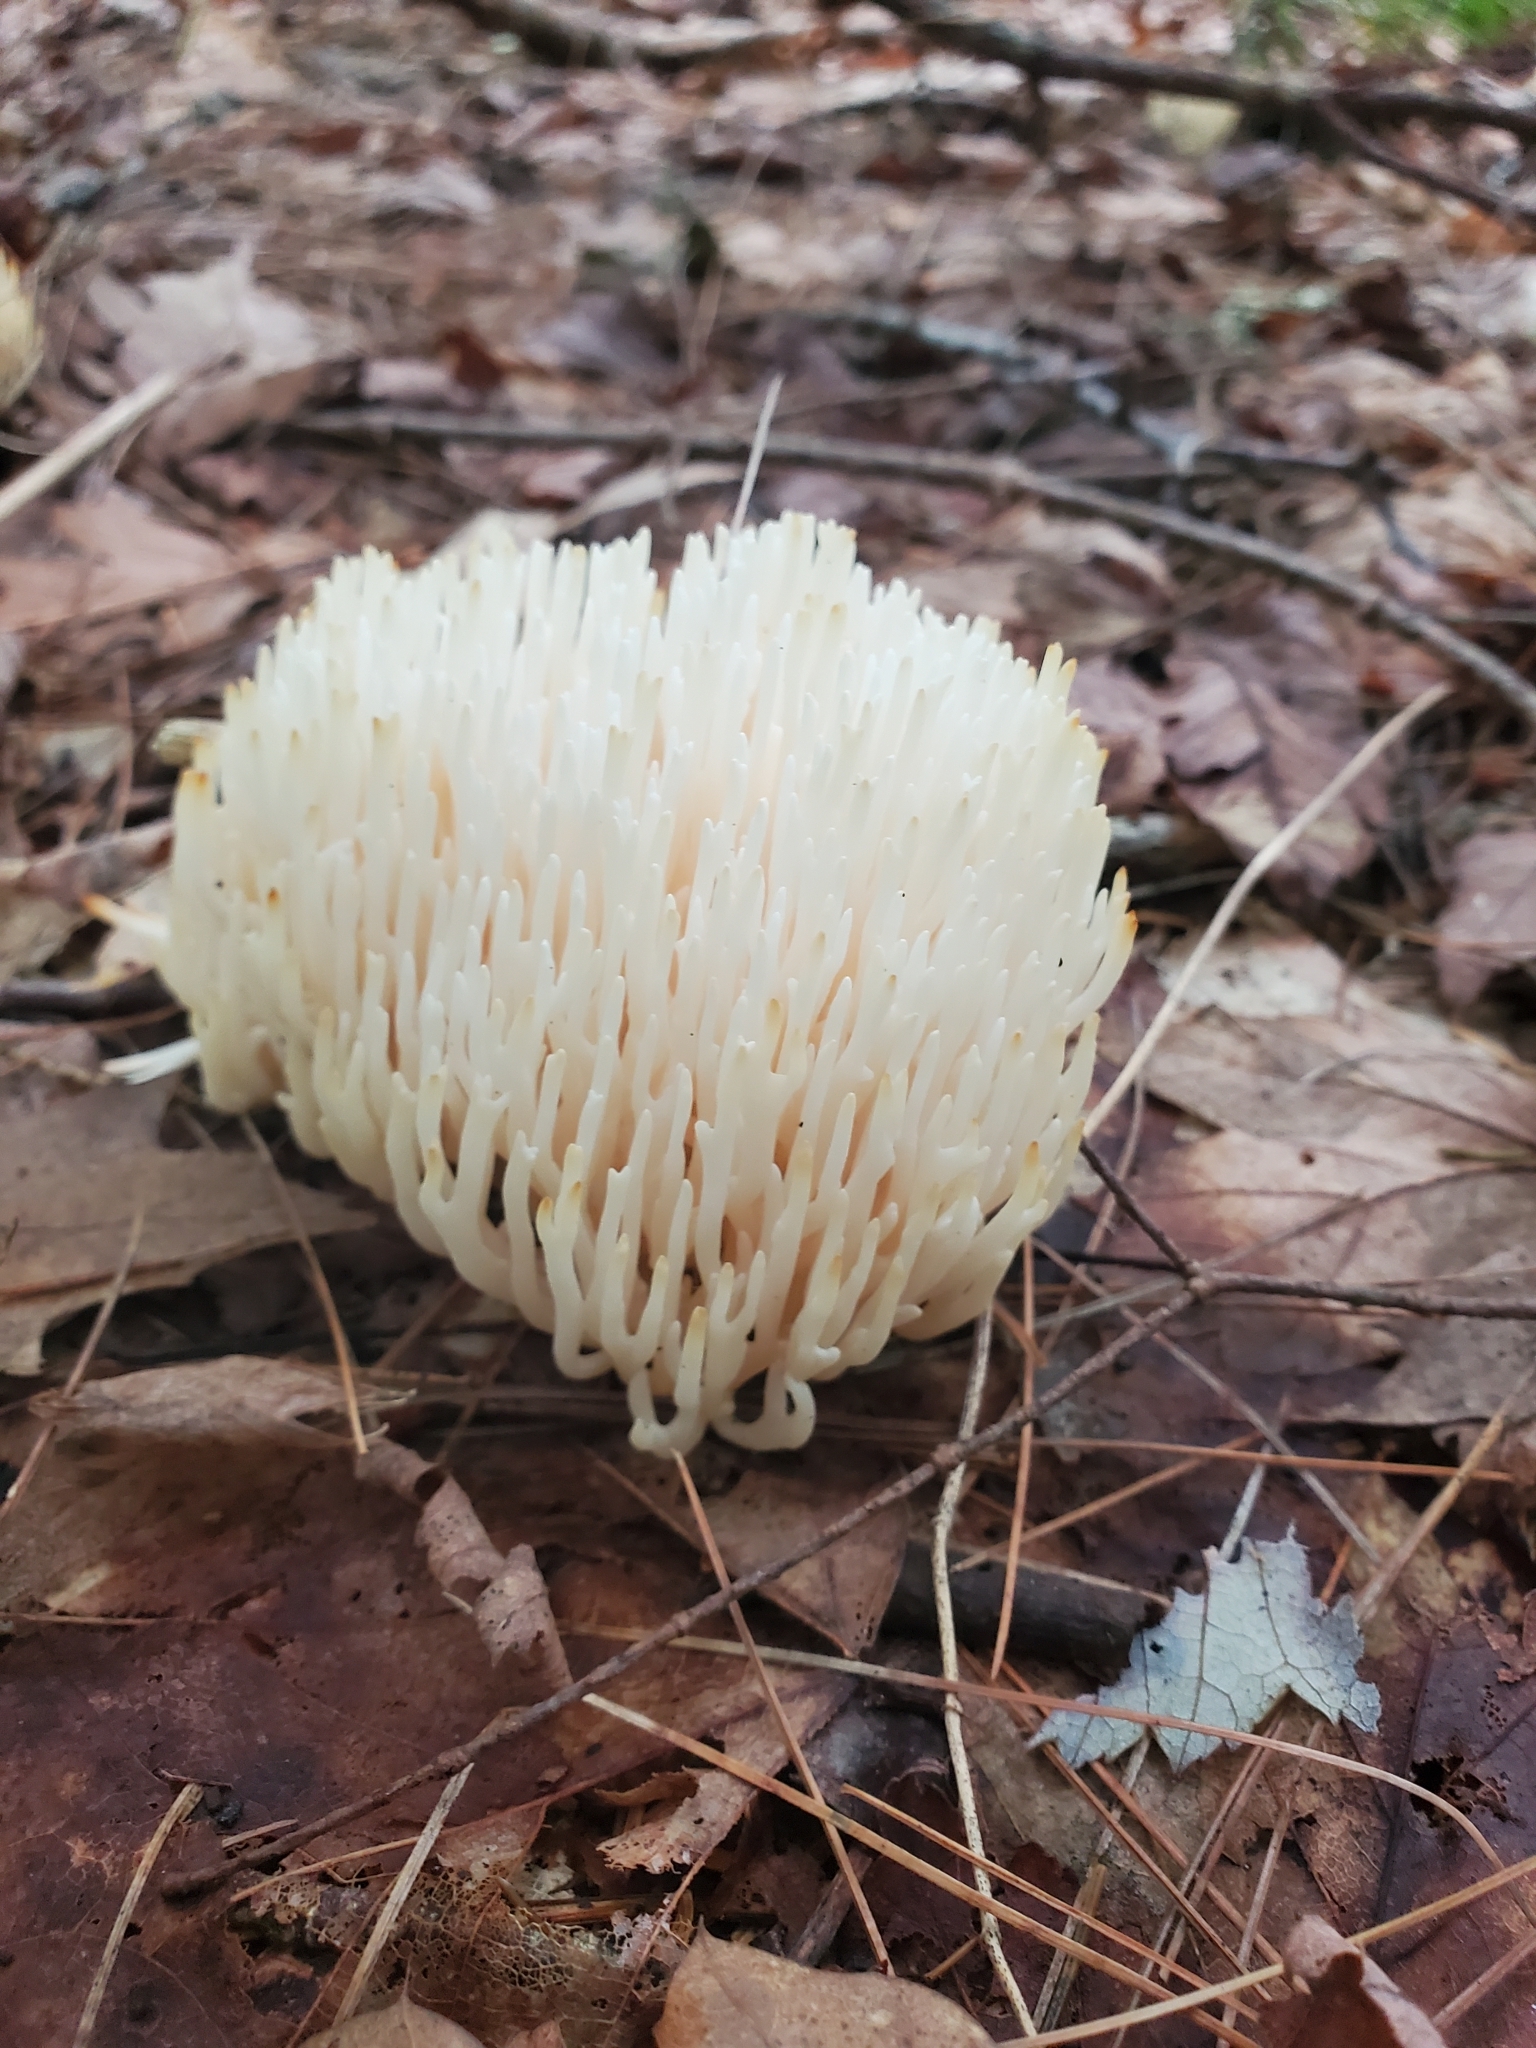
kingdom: Fungi
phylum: Basidiomycota
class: Agaricomycetes
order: Agaricales
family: Clavariaceae
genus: Ramariopsis
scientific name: Ramariopsis kunzei
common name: Ivory coral
